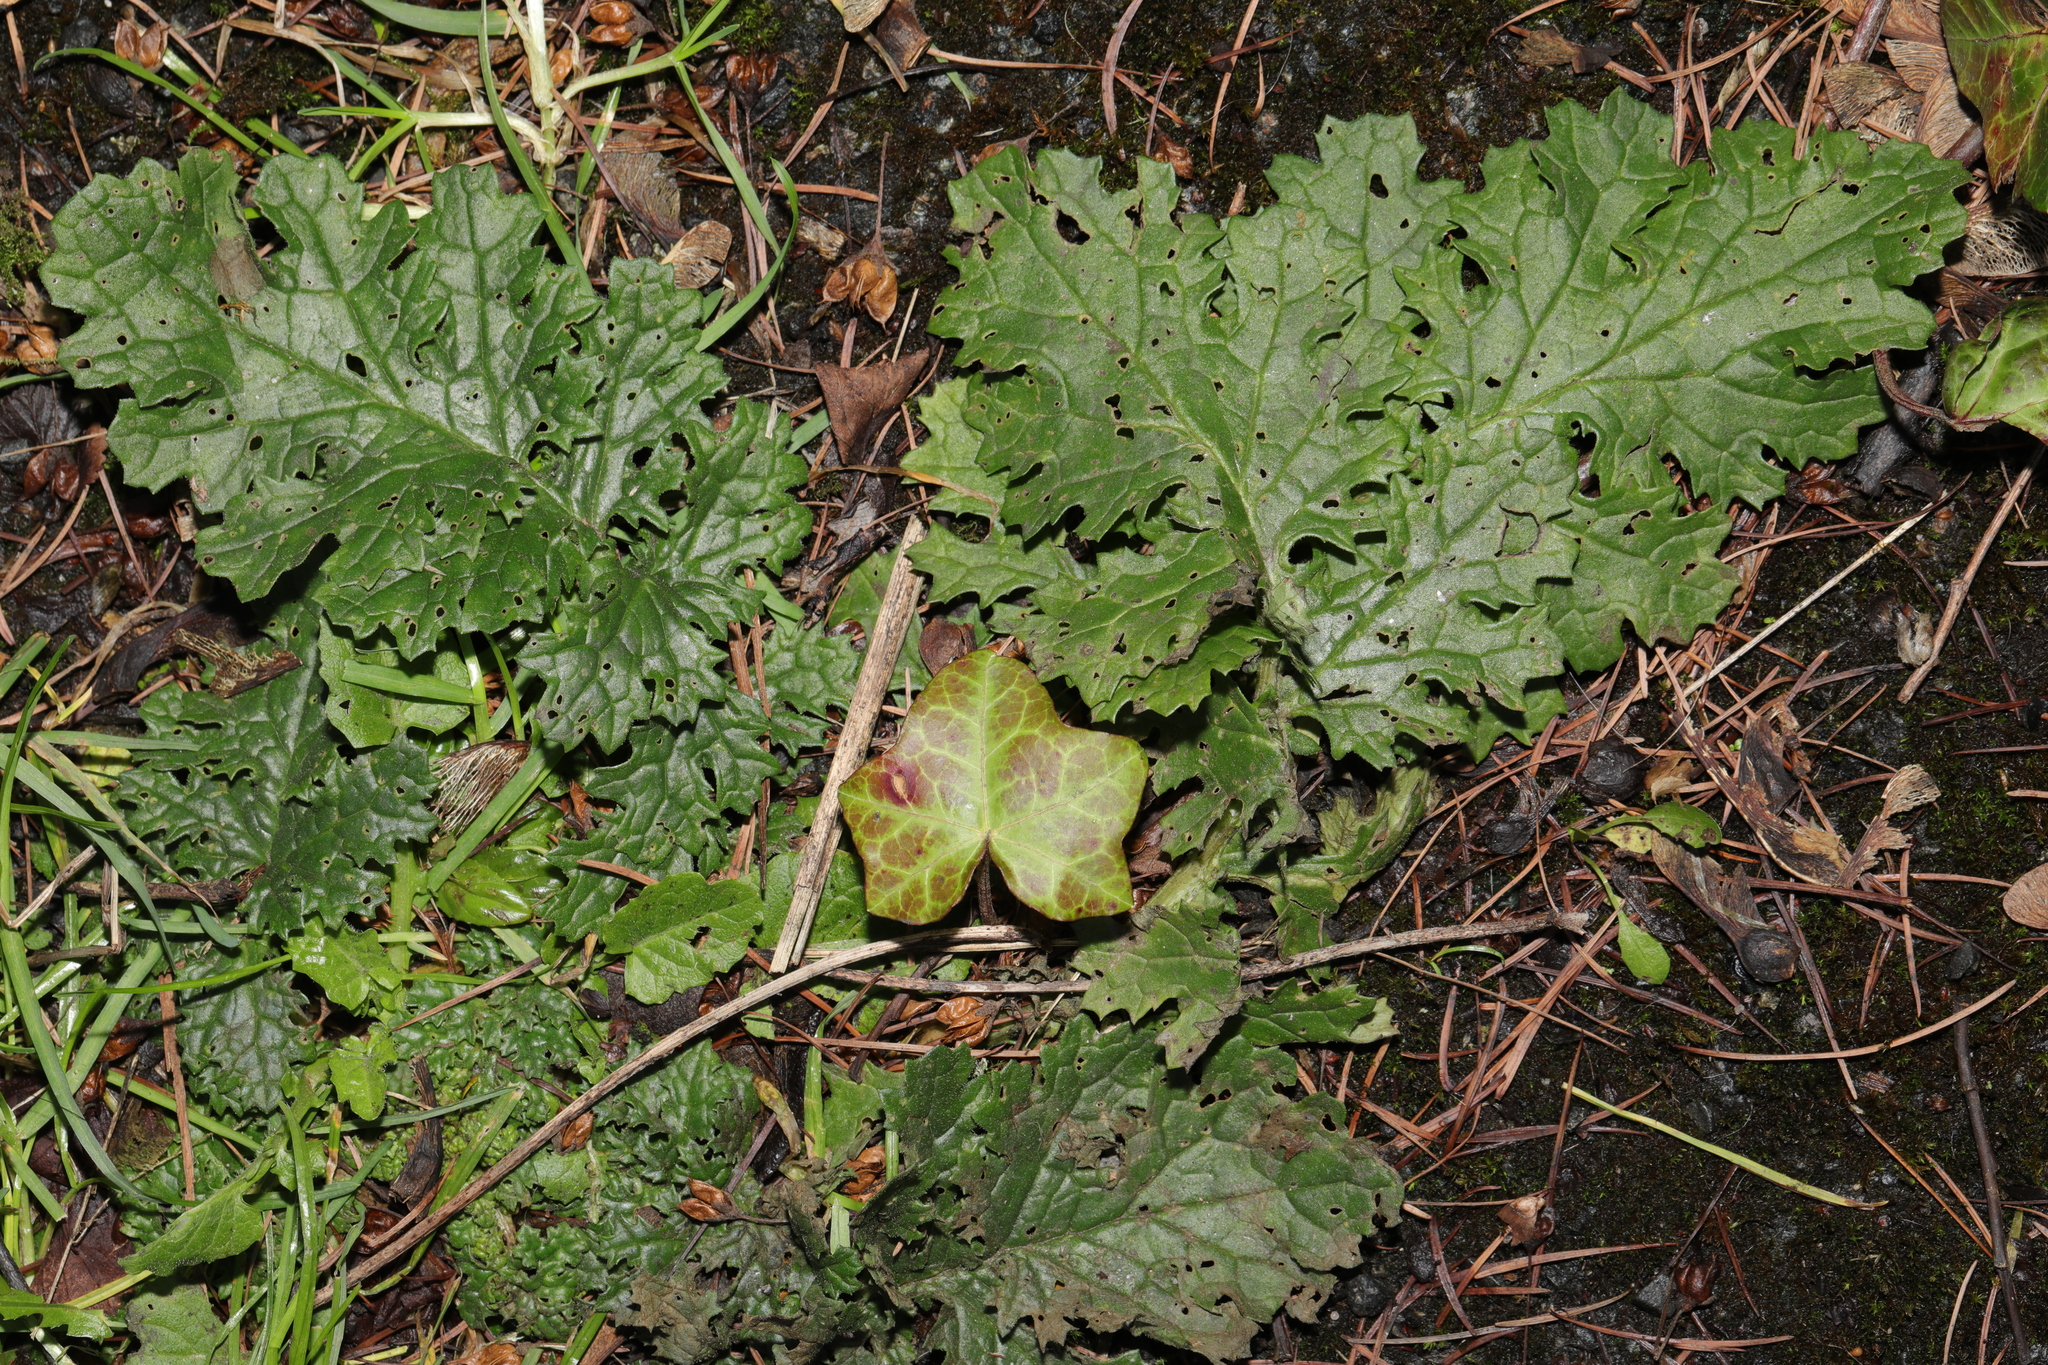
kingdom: Plantae
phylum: Tracheophyta
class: Magnoliopsida
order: Asterales
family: Asteraceae
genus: Jacobaea
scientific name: Jacobaea vulgaris
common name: Stinking willie
